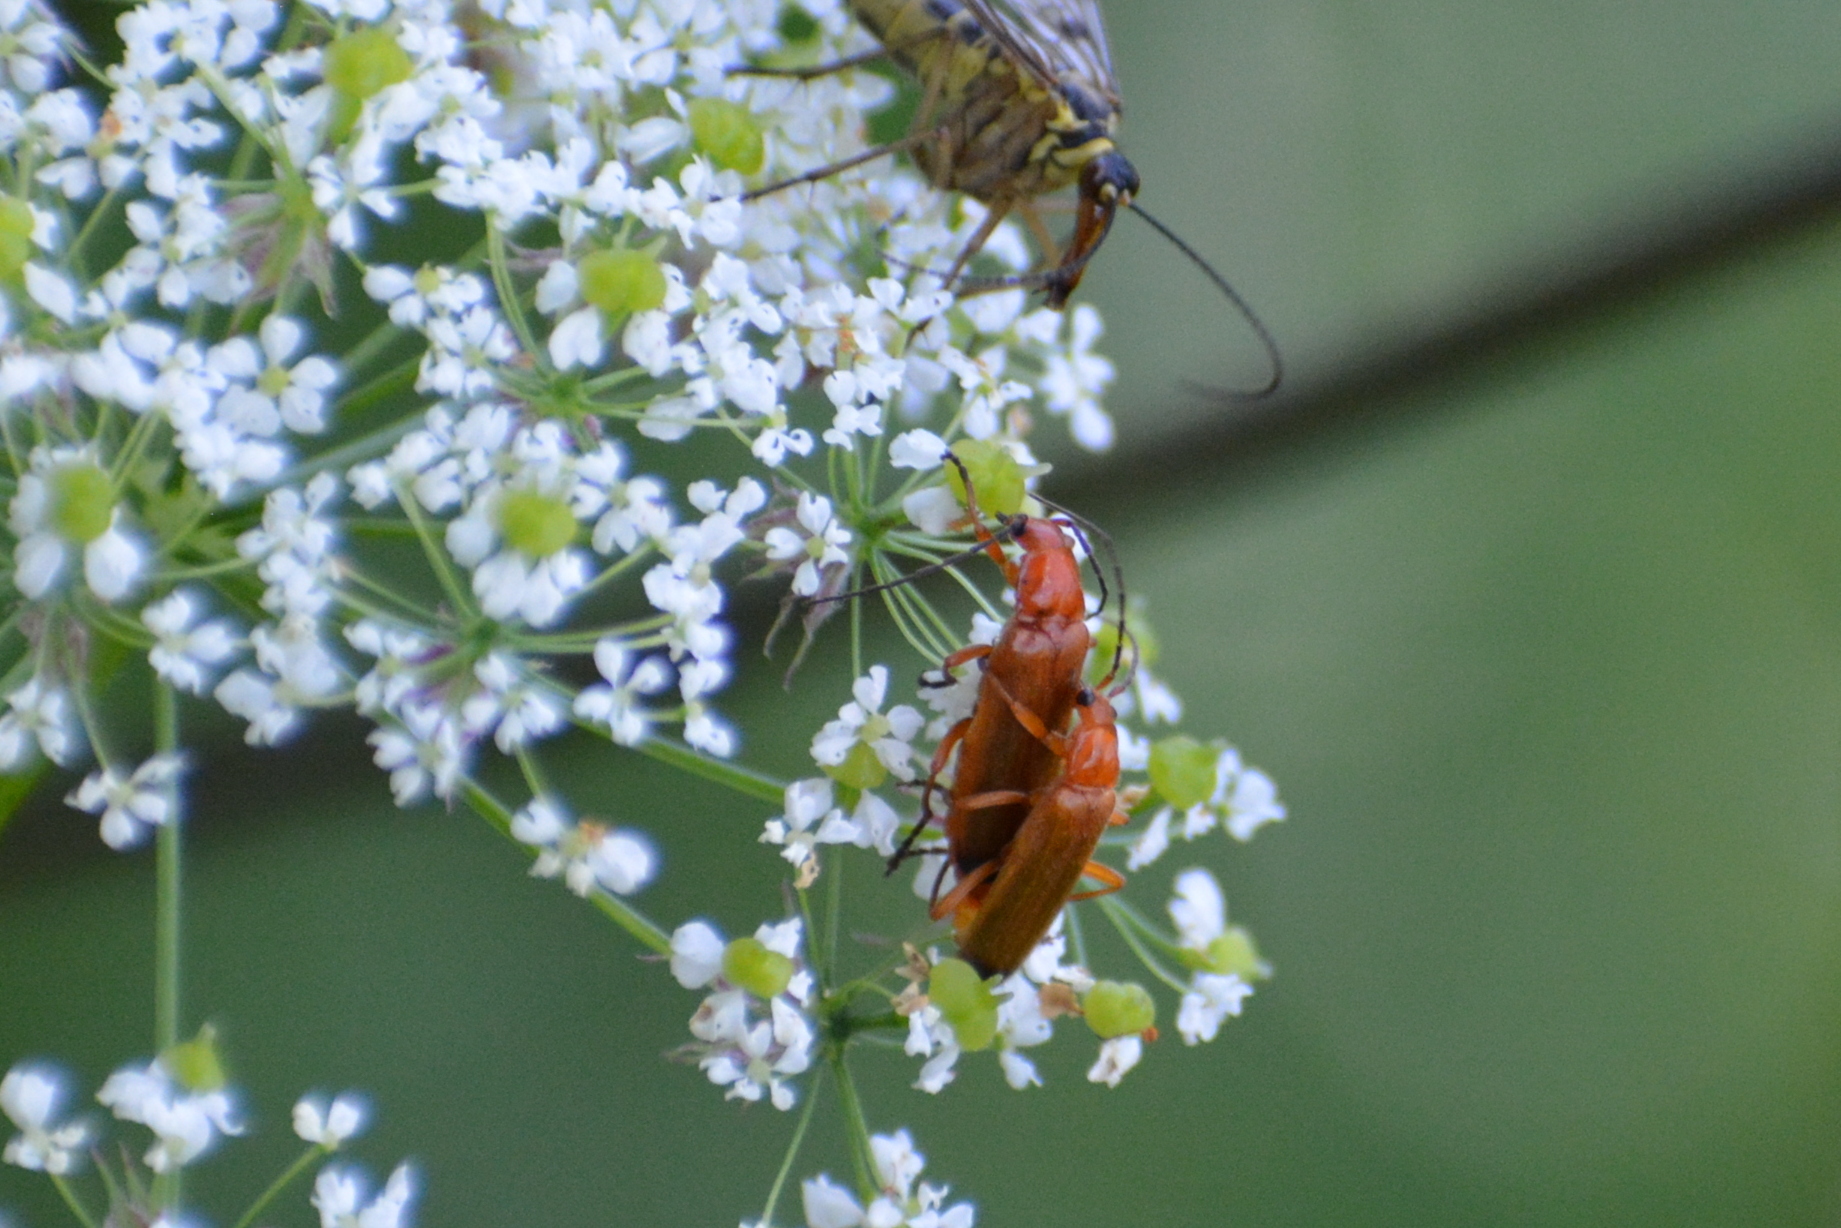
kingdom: Animalia
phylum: Arthropoda
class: Insecta
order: Coleoptera
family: Cantharidae
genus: Rhagonycha
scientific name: Rhagonycha fulva
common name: Common red soldier beetle
